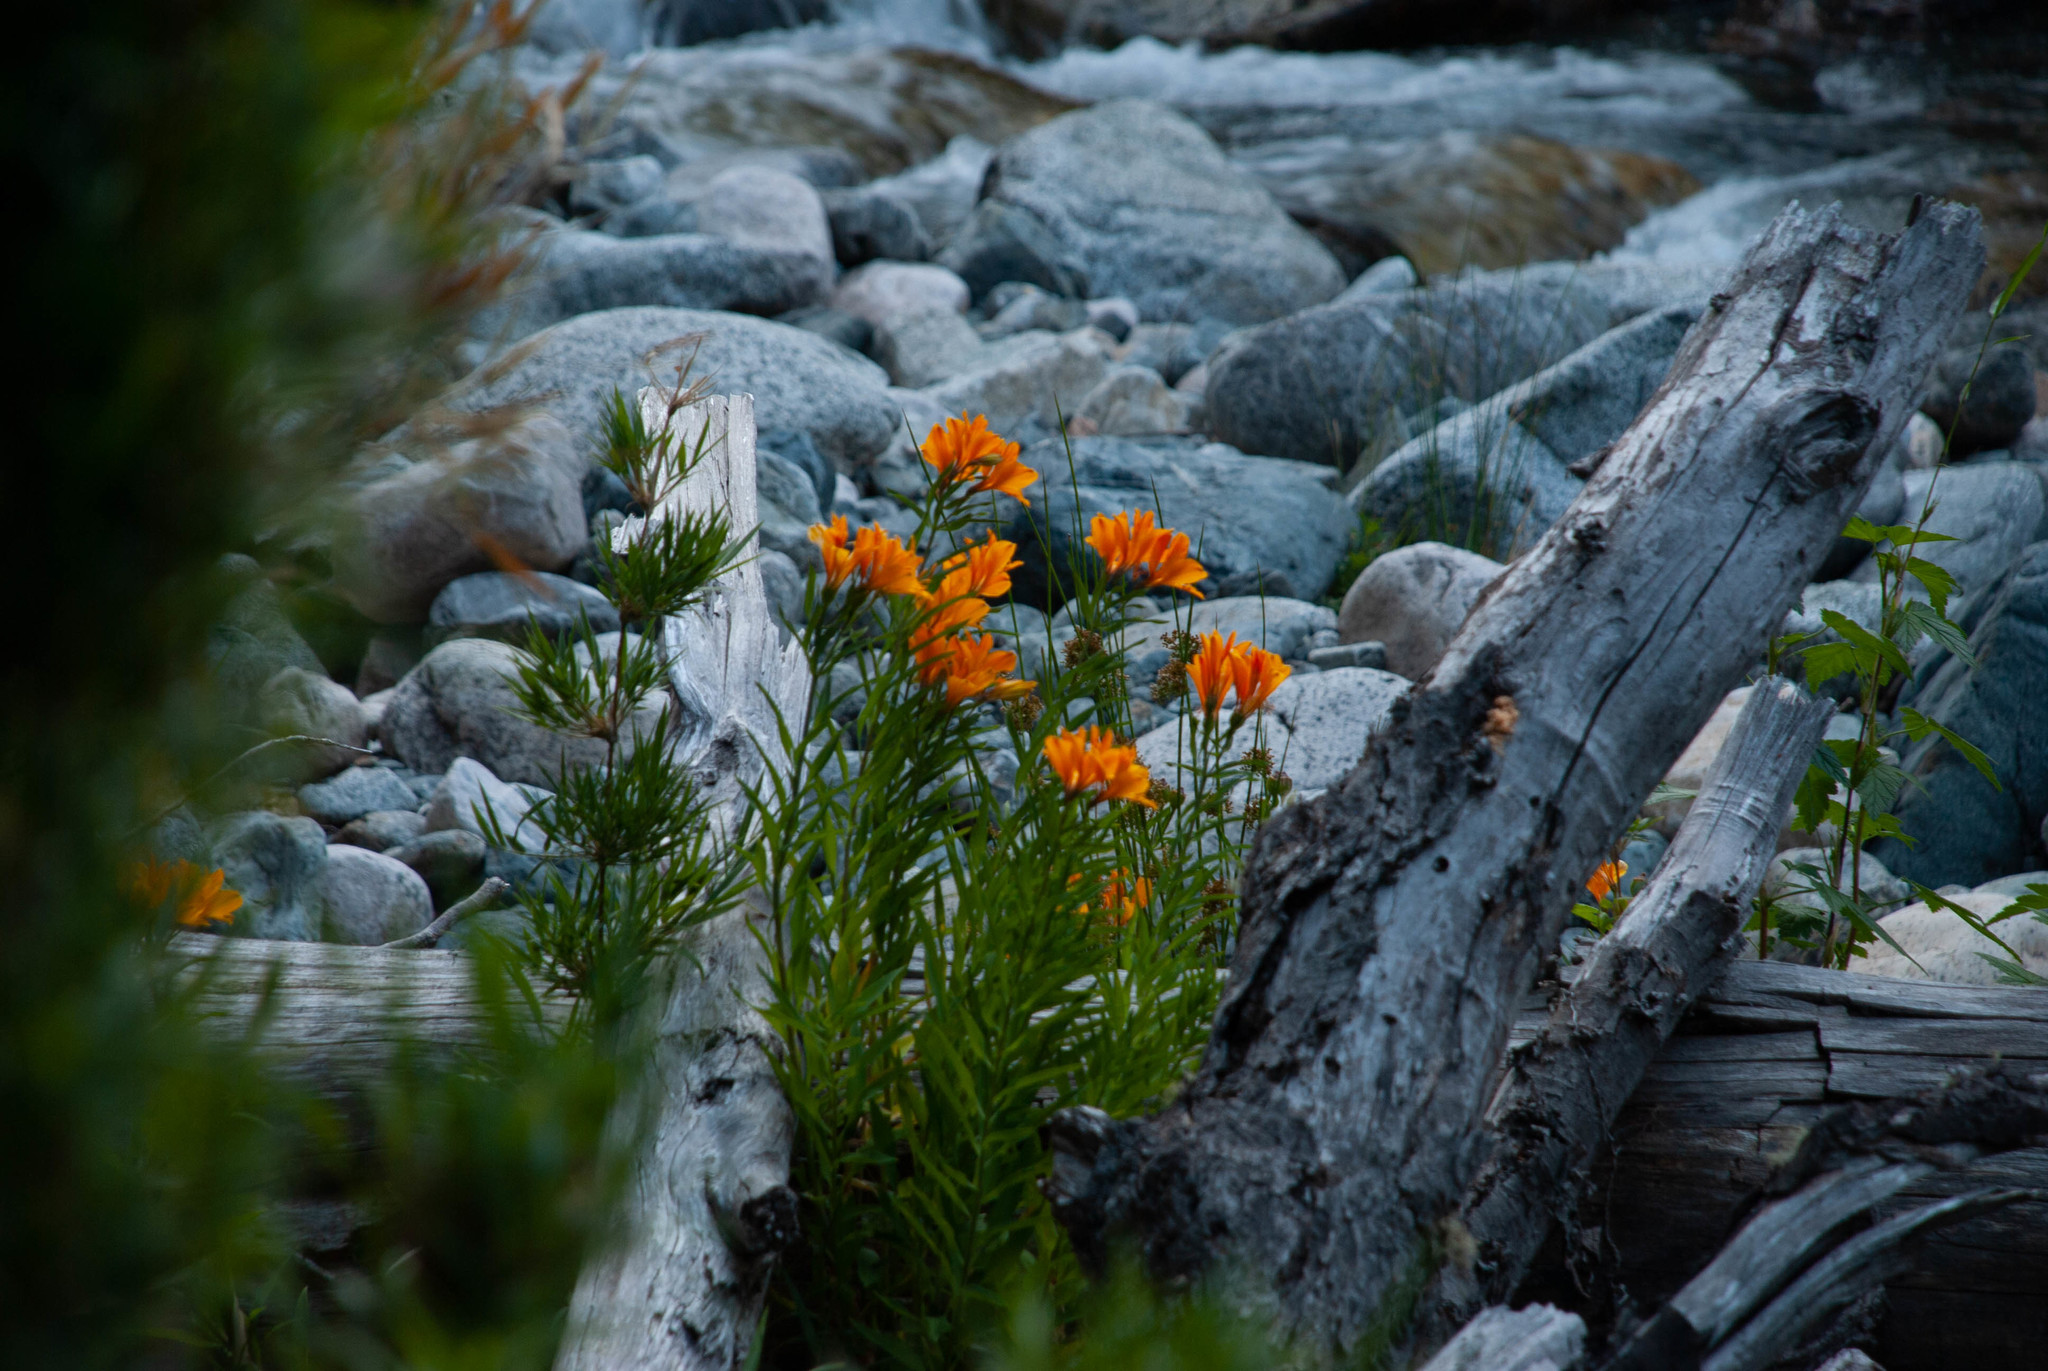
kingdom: Plantae
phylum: Tracheophyta
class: Liliopsida
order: Liliales
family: Alstroemeriaceae
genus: Alstroemeria
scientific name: Alstroemeria aurea
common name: Peruvian lily
